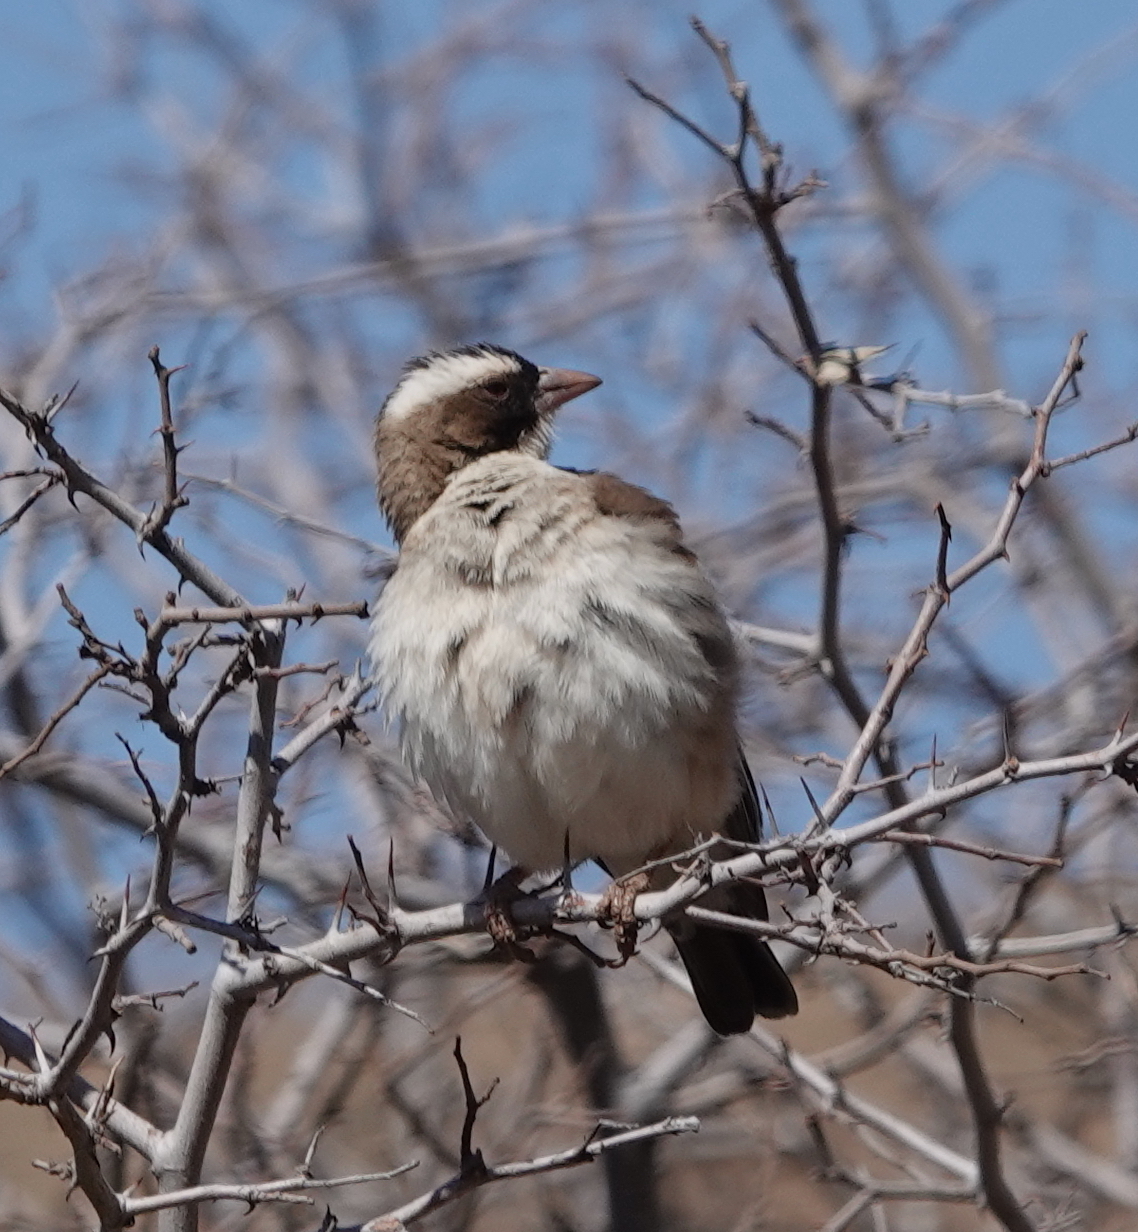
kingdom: Animalia
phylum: Chordata
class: Aves
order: Passeriformes
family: Passeridae
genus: Plocepasser
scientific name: Plocepasser mahali
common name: White-browed sparrow-weaver
